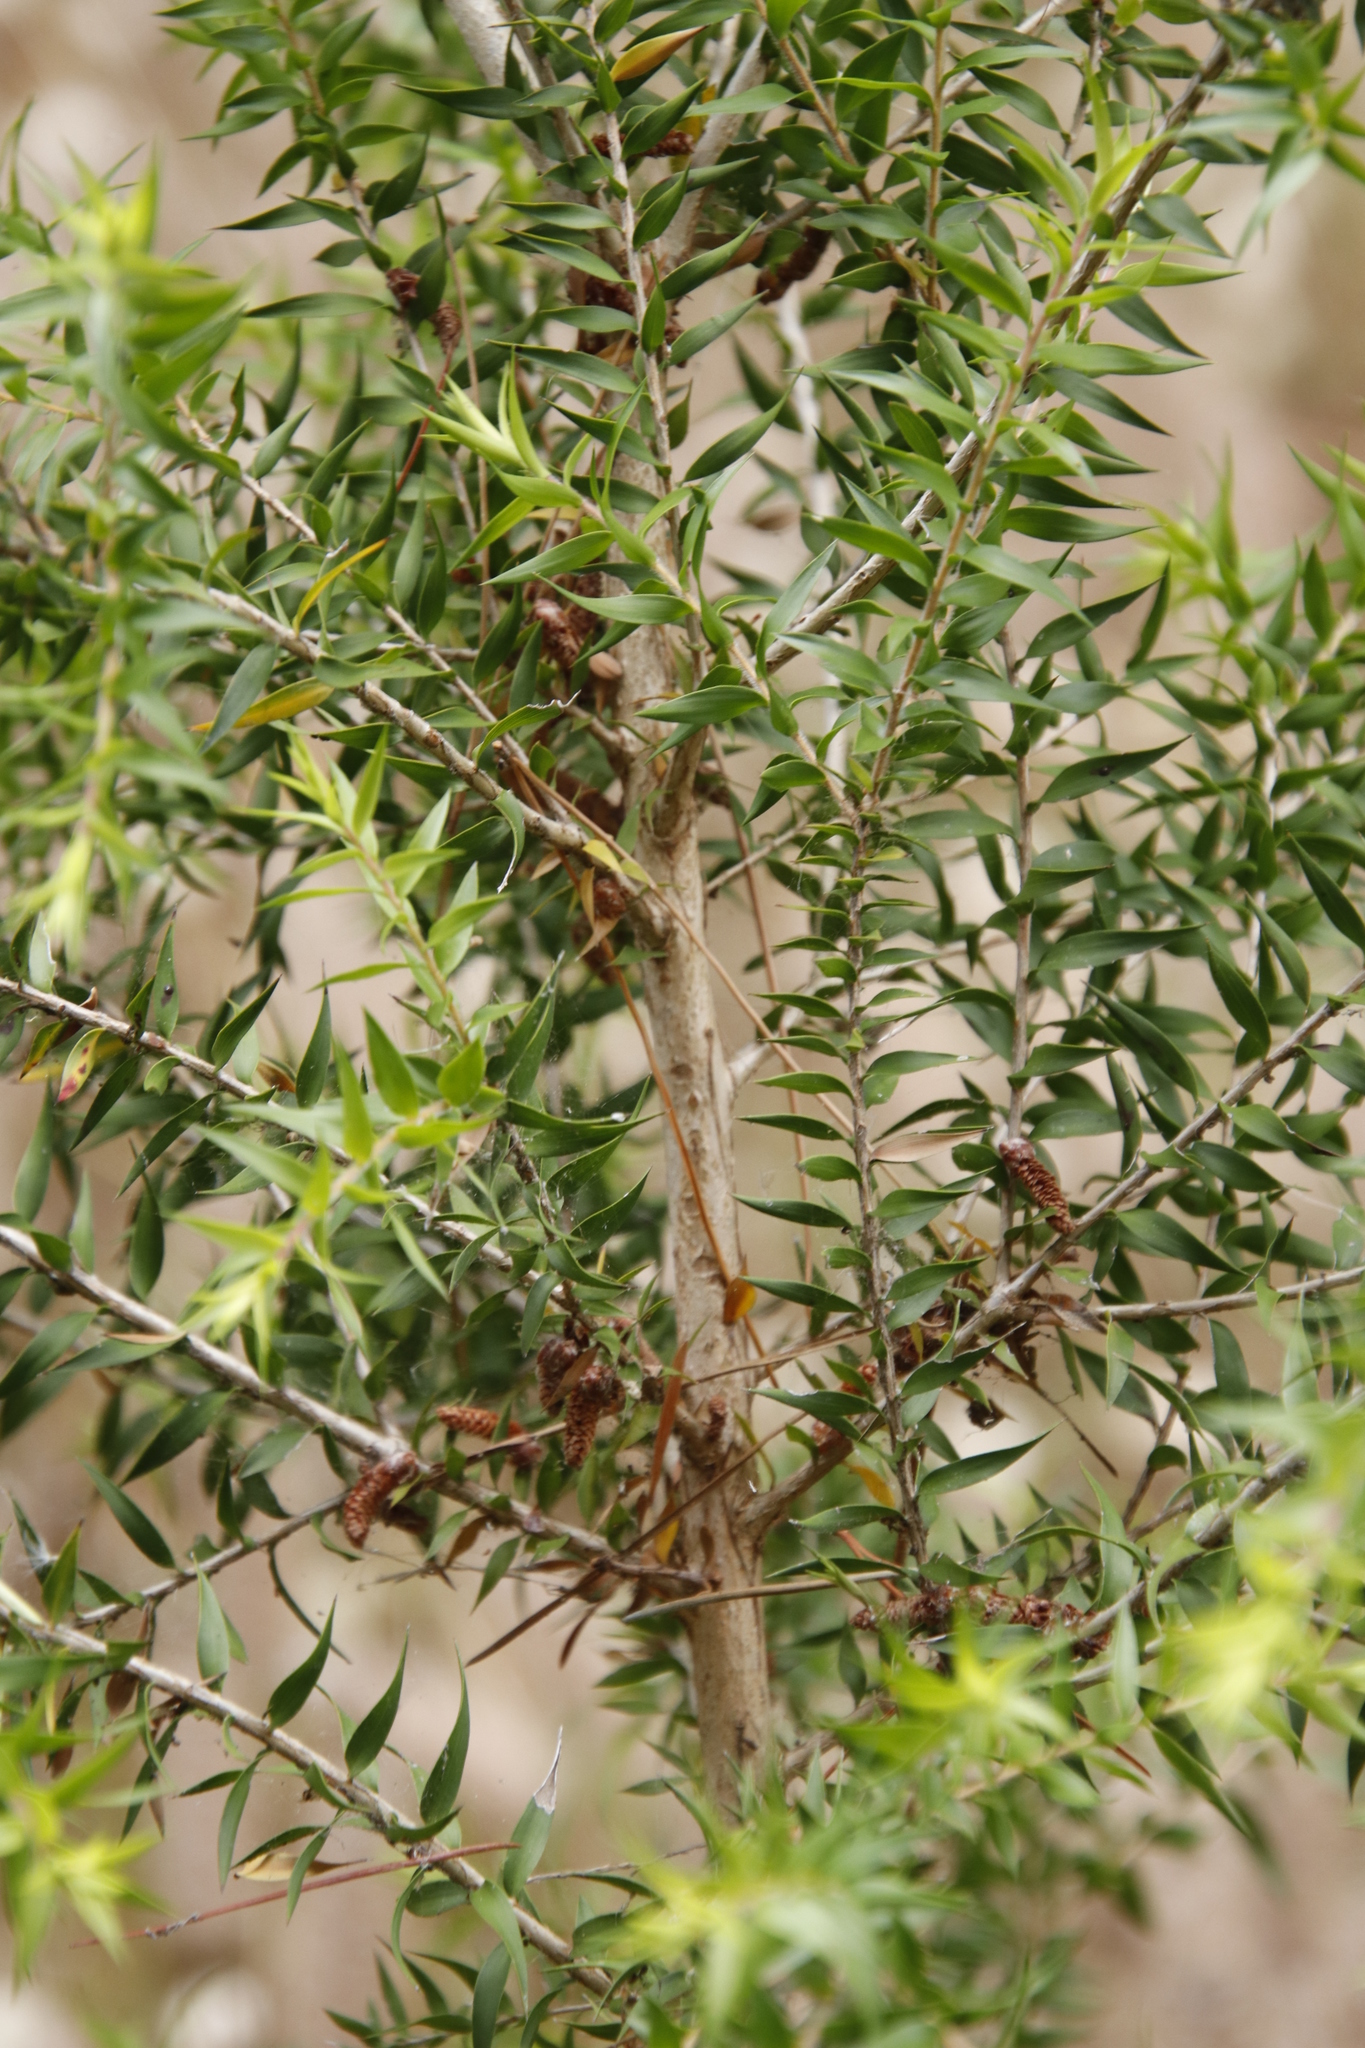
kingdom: Plantae
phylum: Tracheophyta
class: Magnoliopsida
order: Myrtales
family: Myrtaceae
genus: Melaleuca
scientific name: Melaleuca styphelioides
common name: Prickly paperbark
